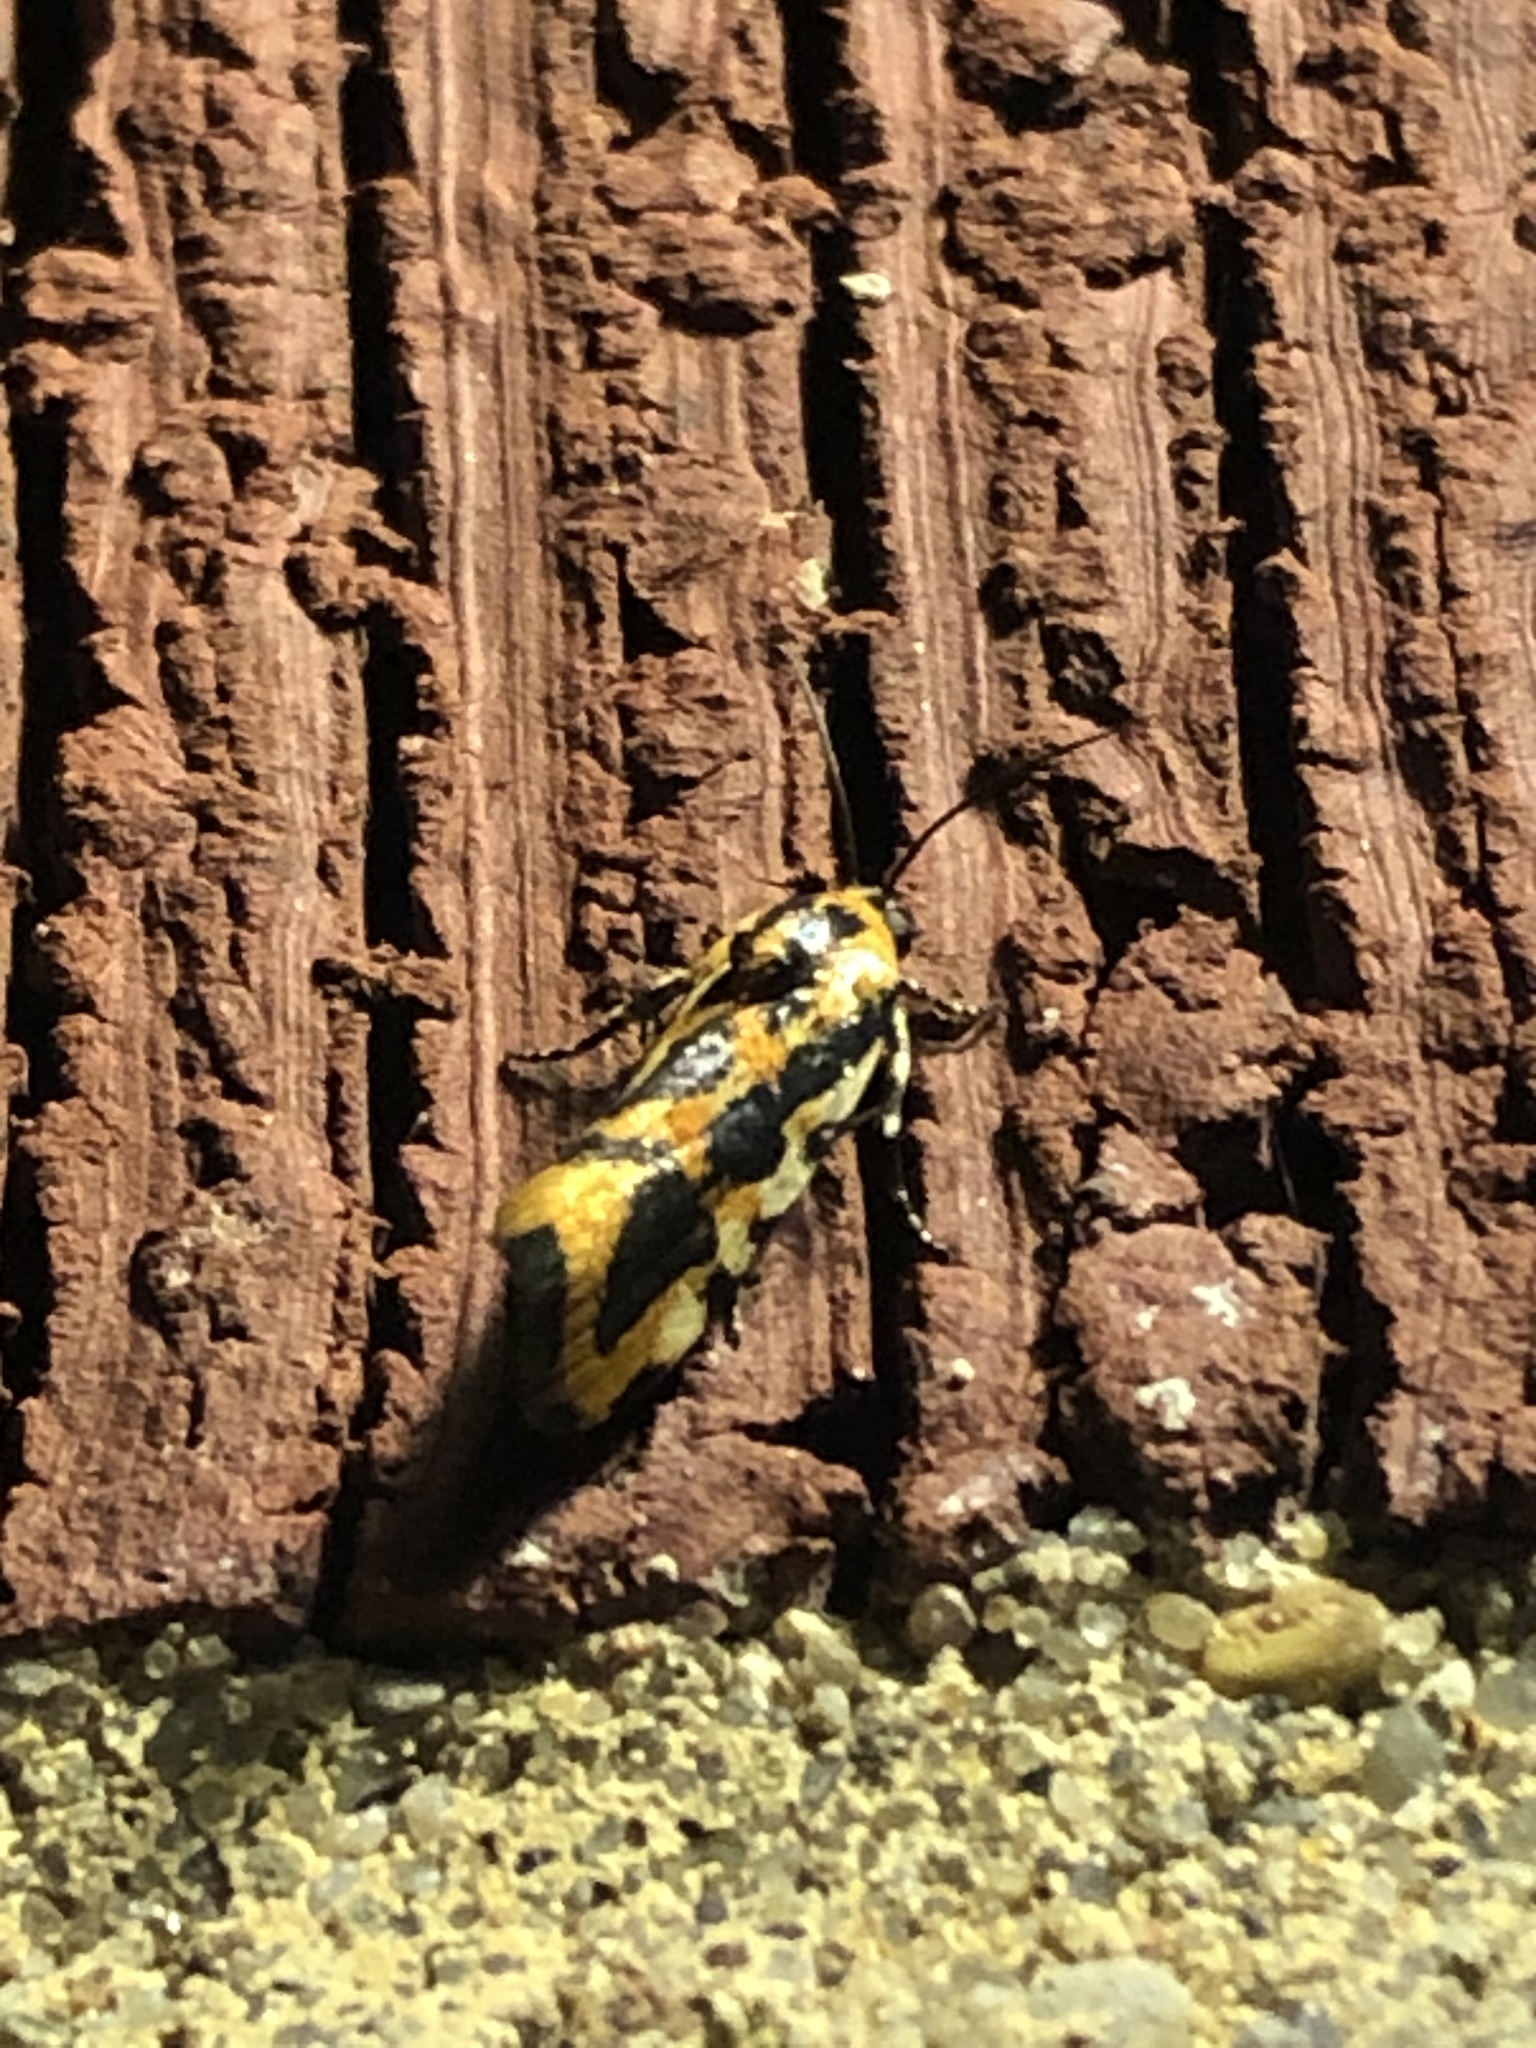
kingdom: Animalia
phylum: Arthropoda
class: Insecta
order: Lepidoptera
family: Noctuidae
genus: Acontia
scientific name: Acontia leo
